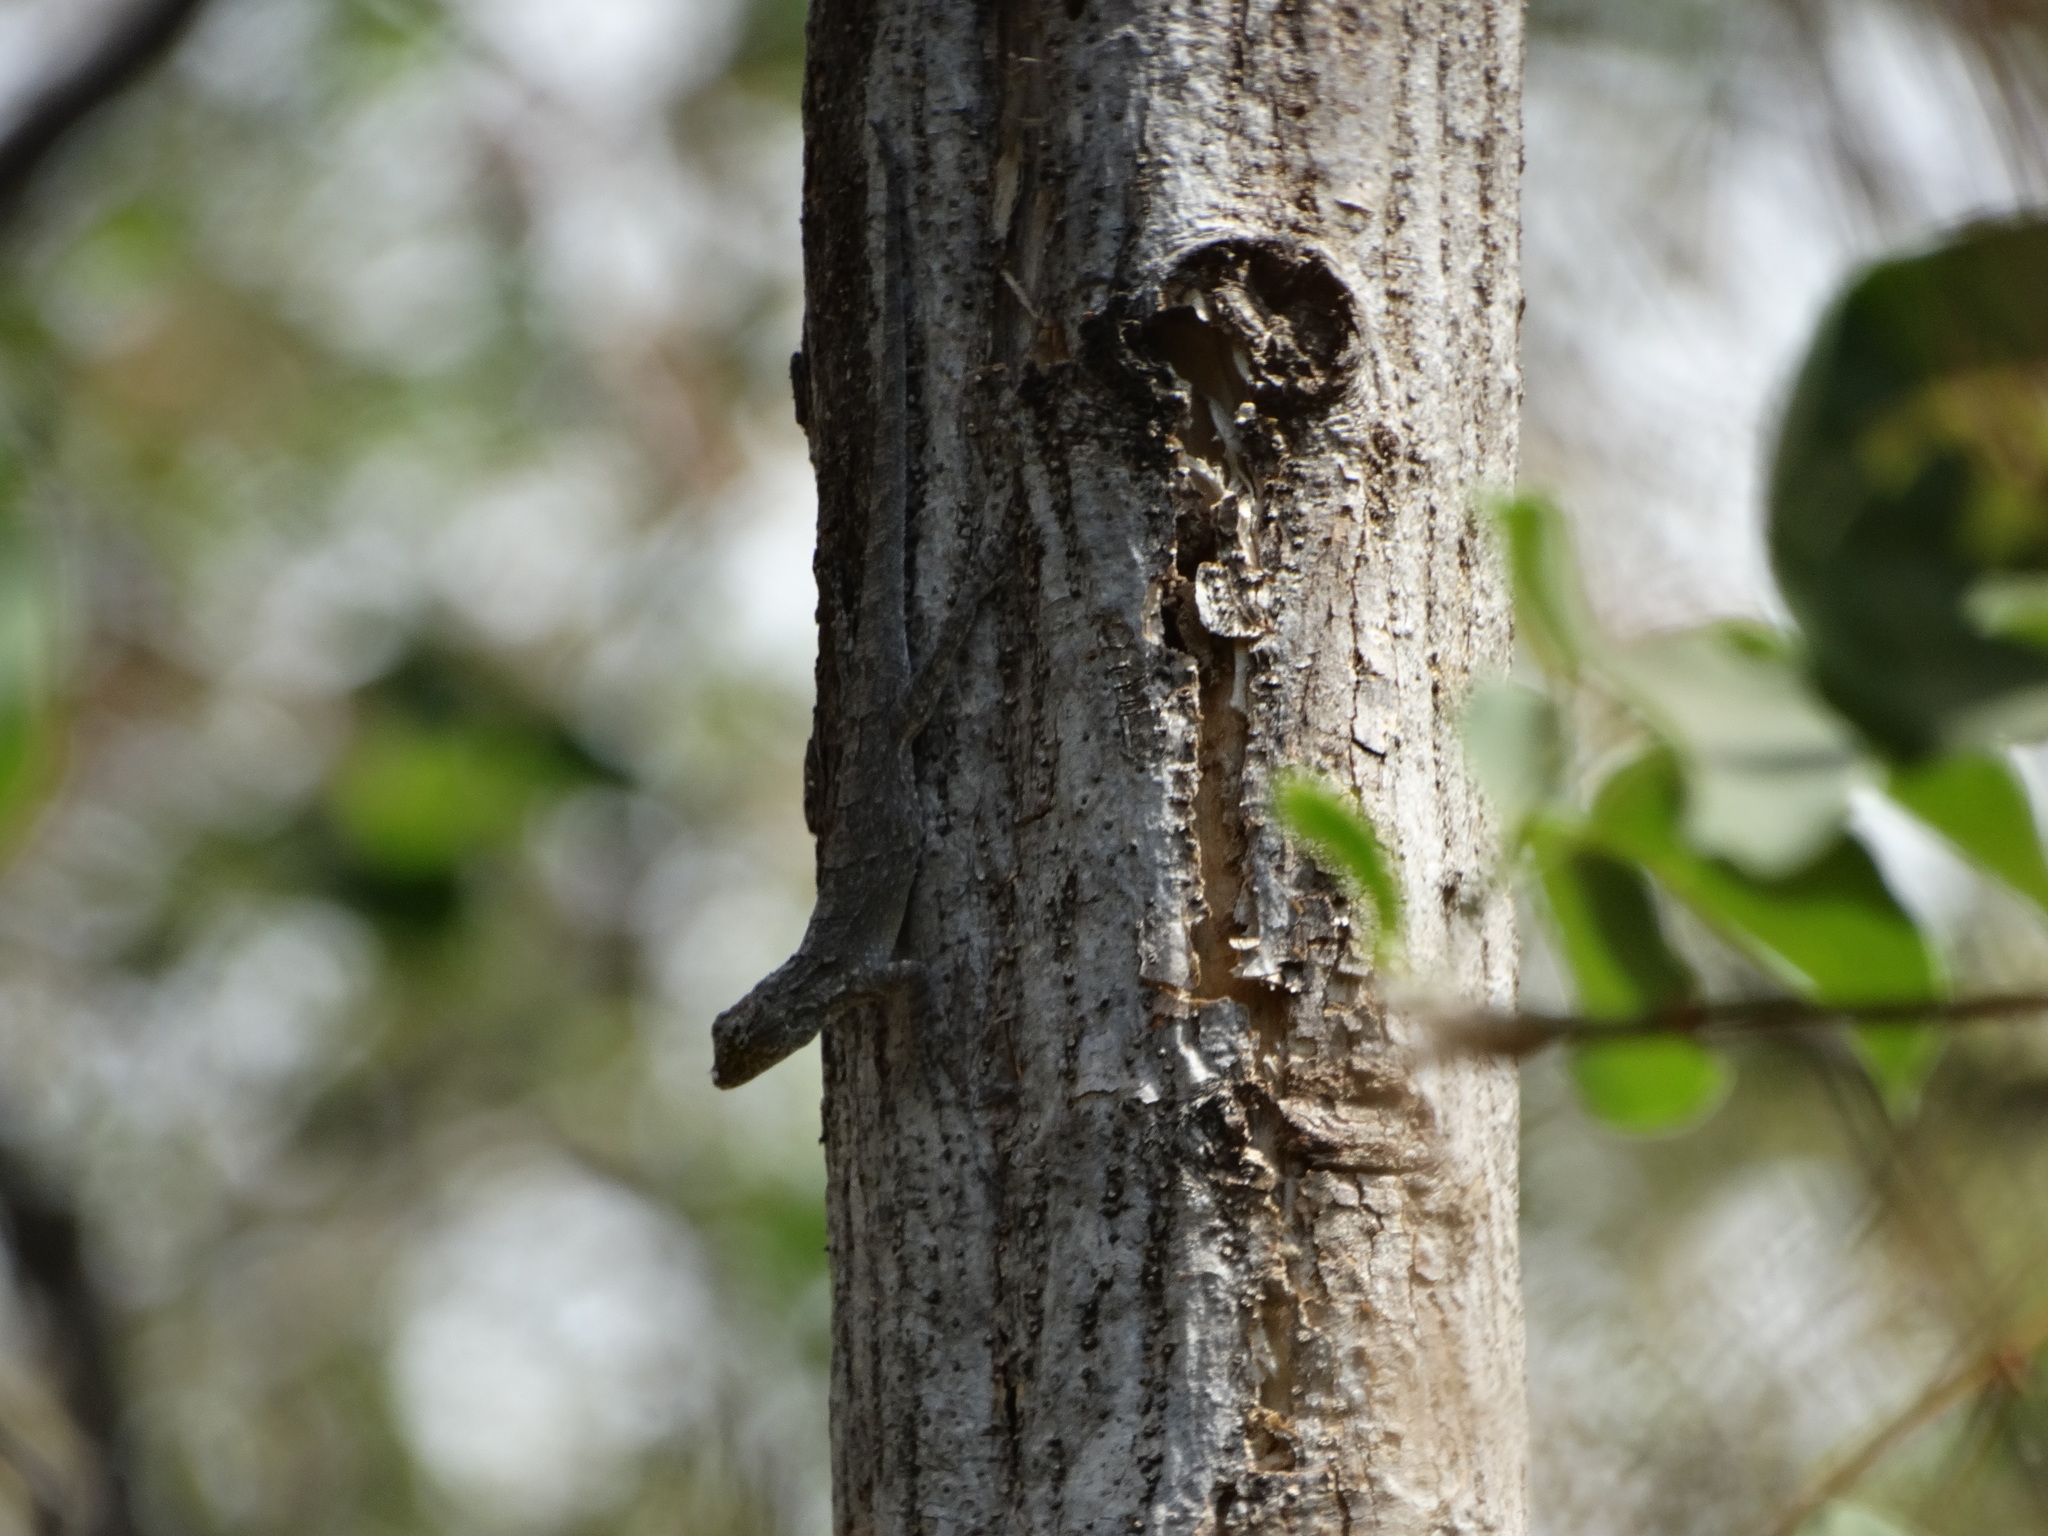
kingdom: Animalia
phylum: Chordata
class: Squamata
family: Phrynosomatidae
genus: Urosaurus
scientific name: Urosaurus bicarinatus
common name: Tropical tree lizard
